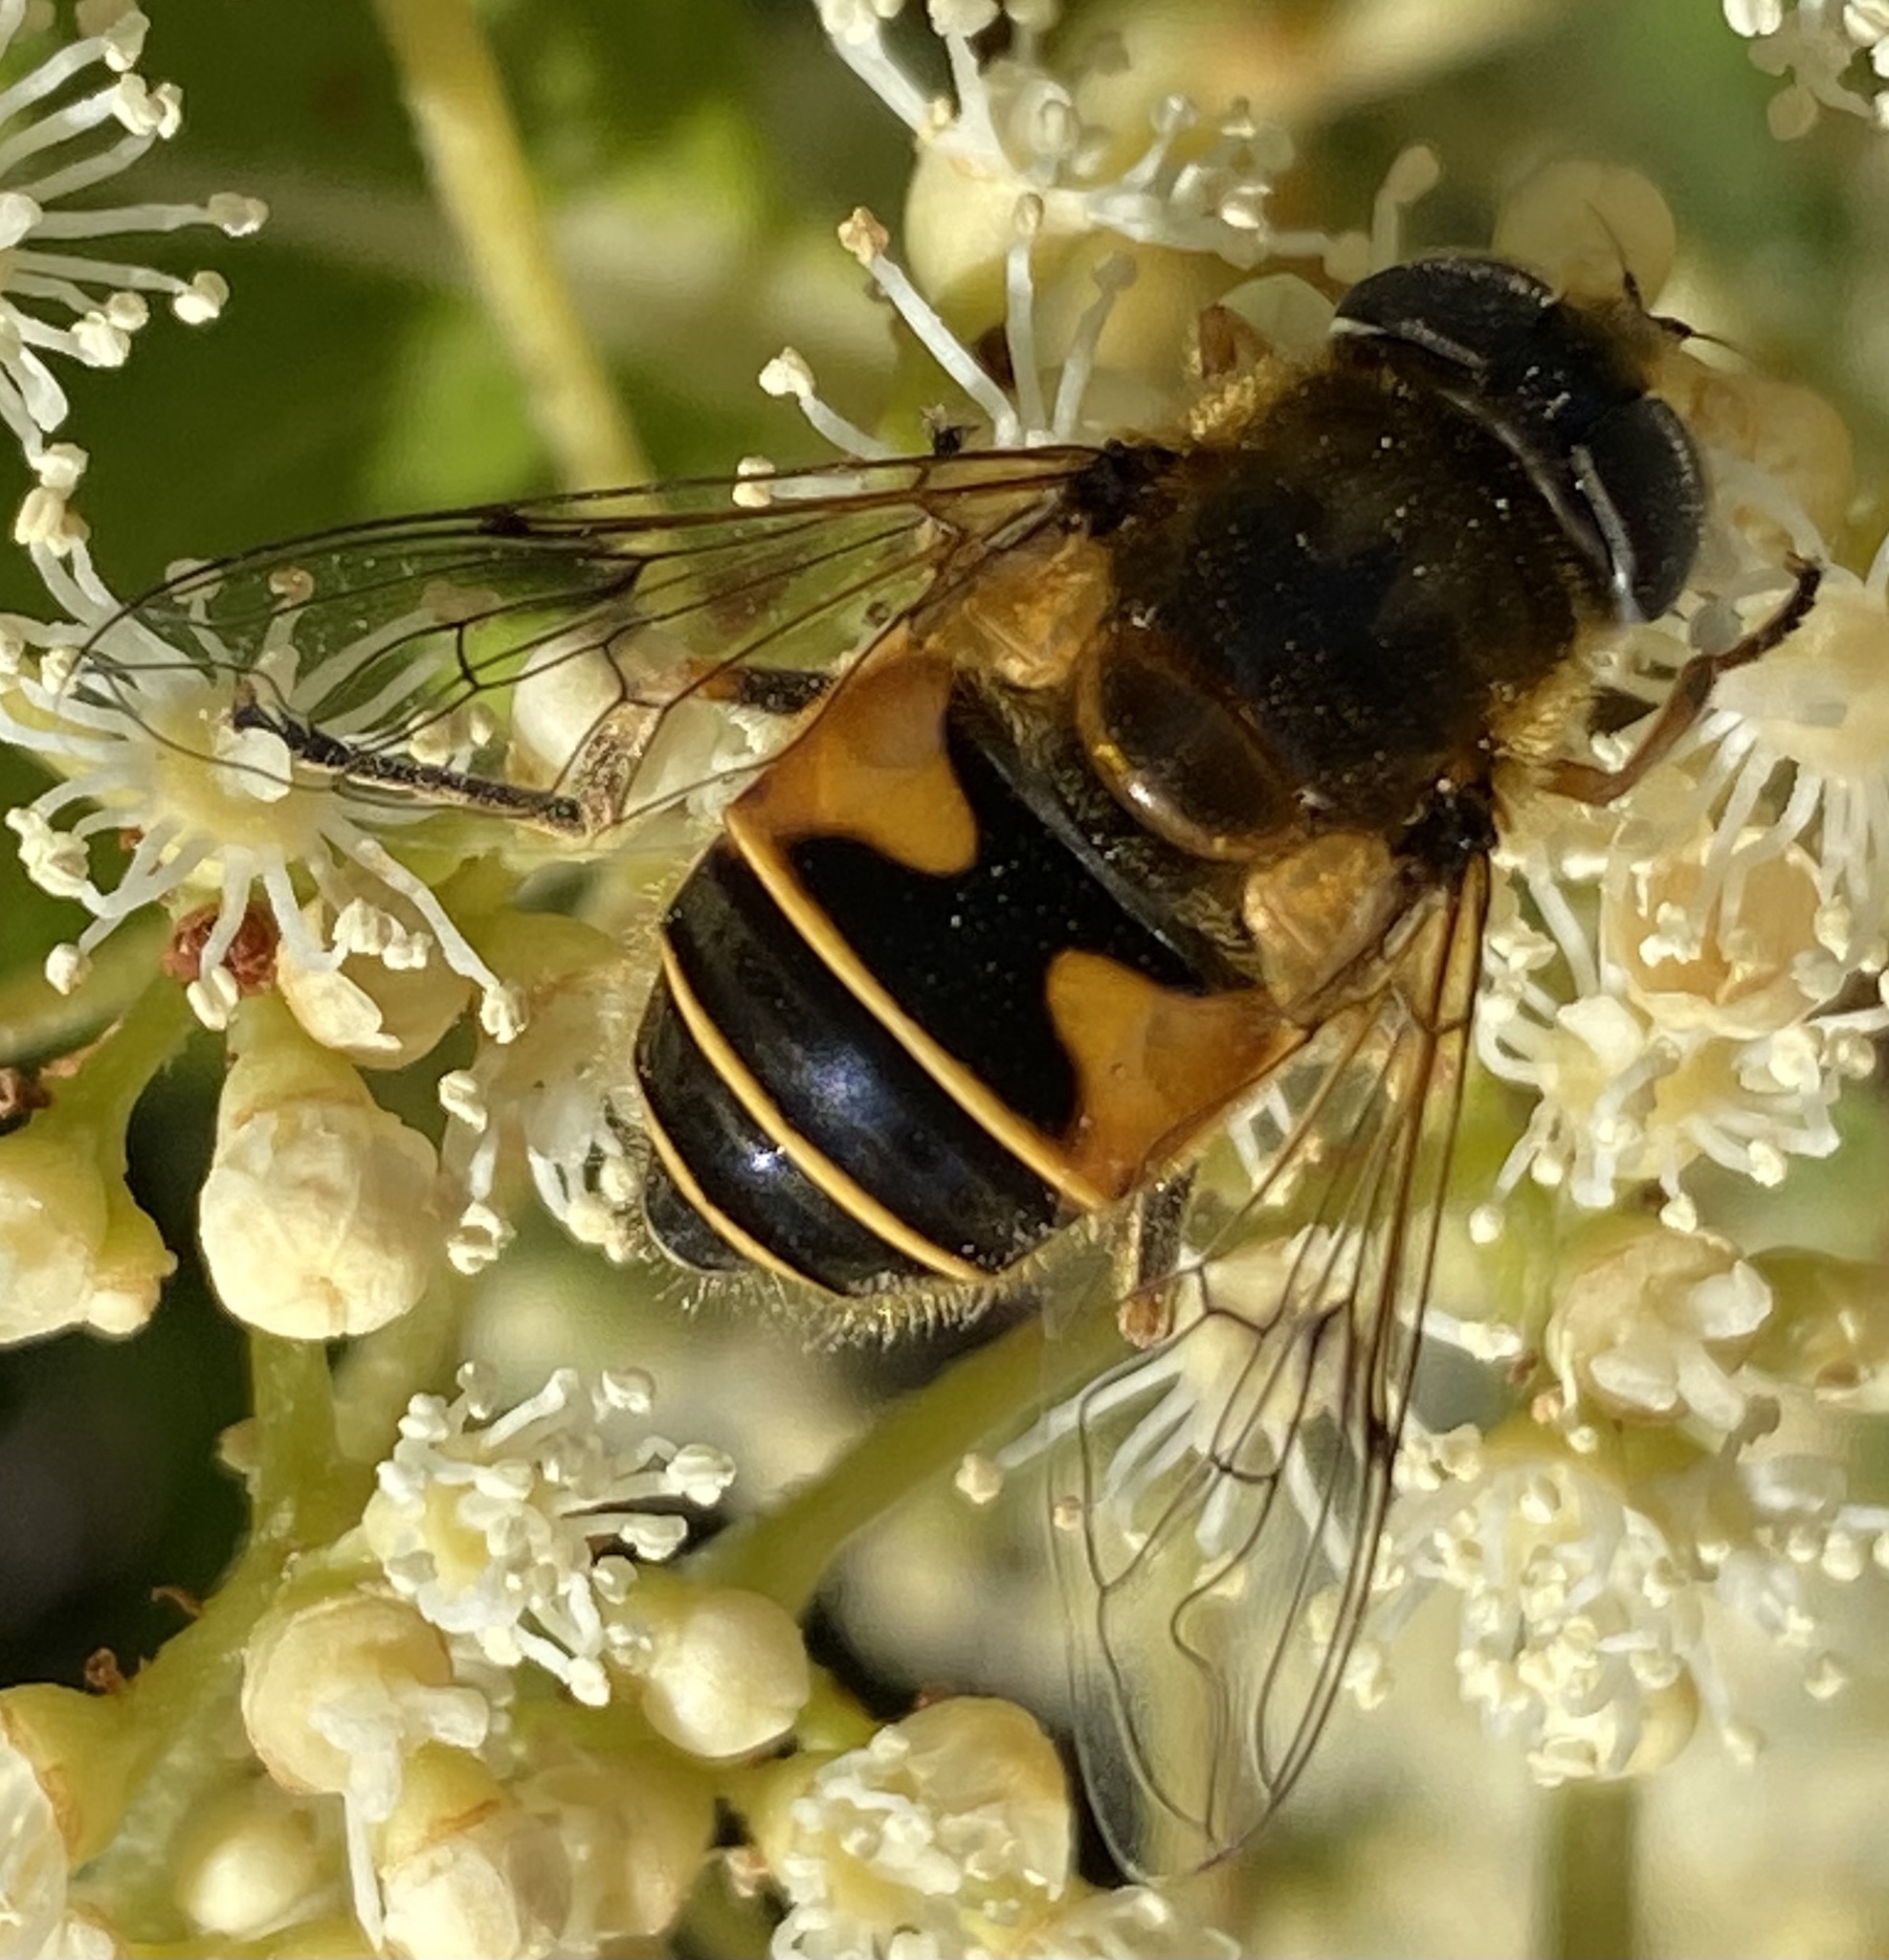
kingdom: Animalia
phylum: Arthropoda
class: Insecta
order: Diptera
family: Syrphidae
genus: Cheilosia
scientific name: Cheilosia morio
